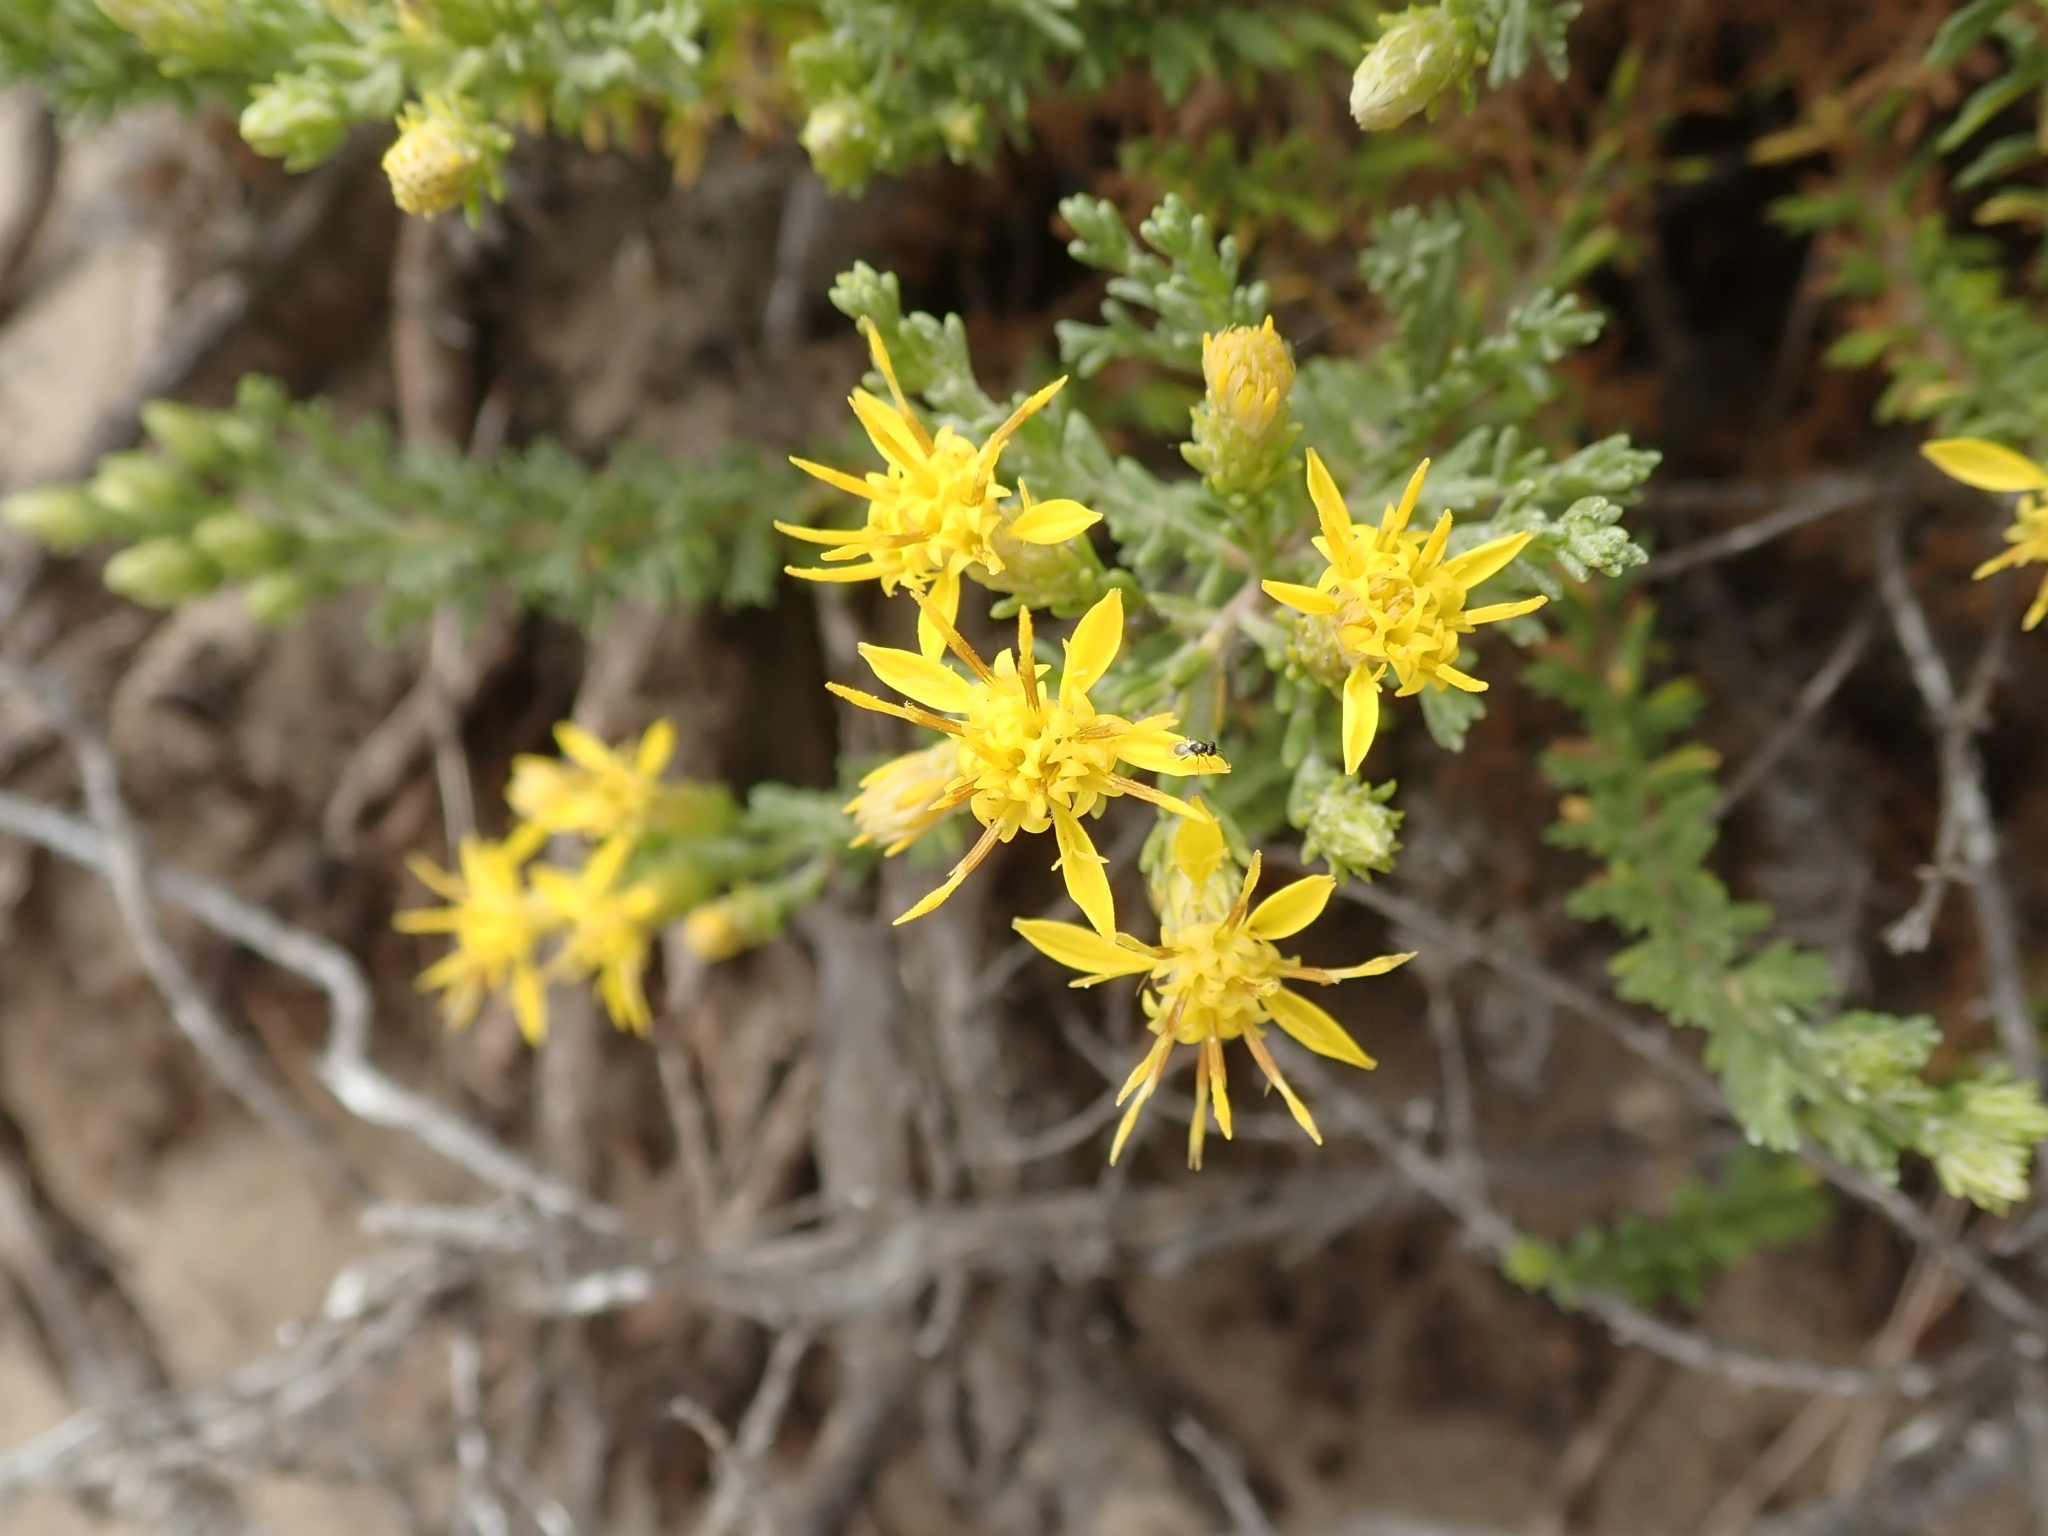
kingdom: Plantae
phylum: Tracheophyta
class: Magnoliopsida
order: Asterales
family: Asteraceae
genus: Ericameria
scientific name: Ericameria ericoides
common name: California goldenbush
